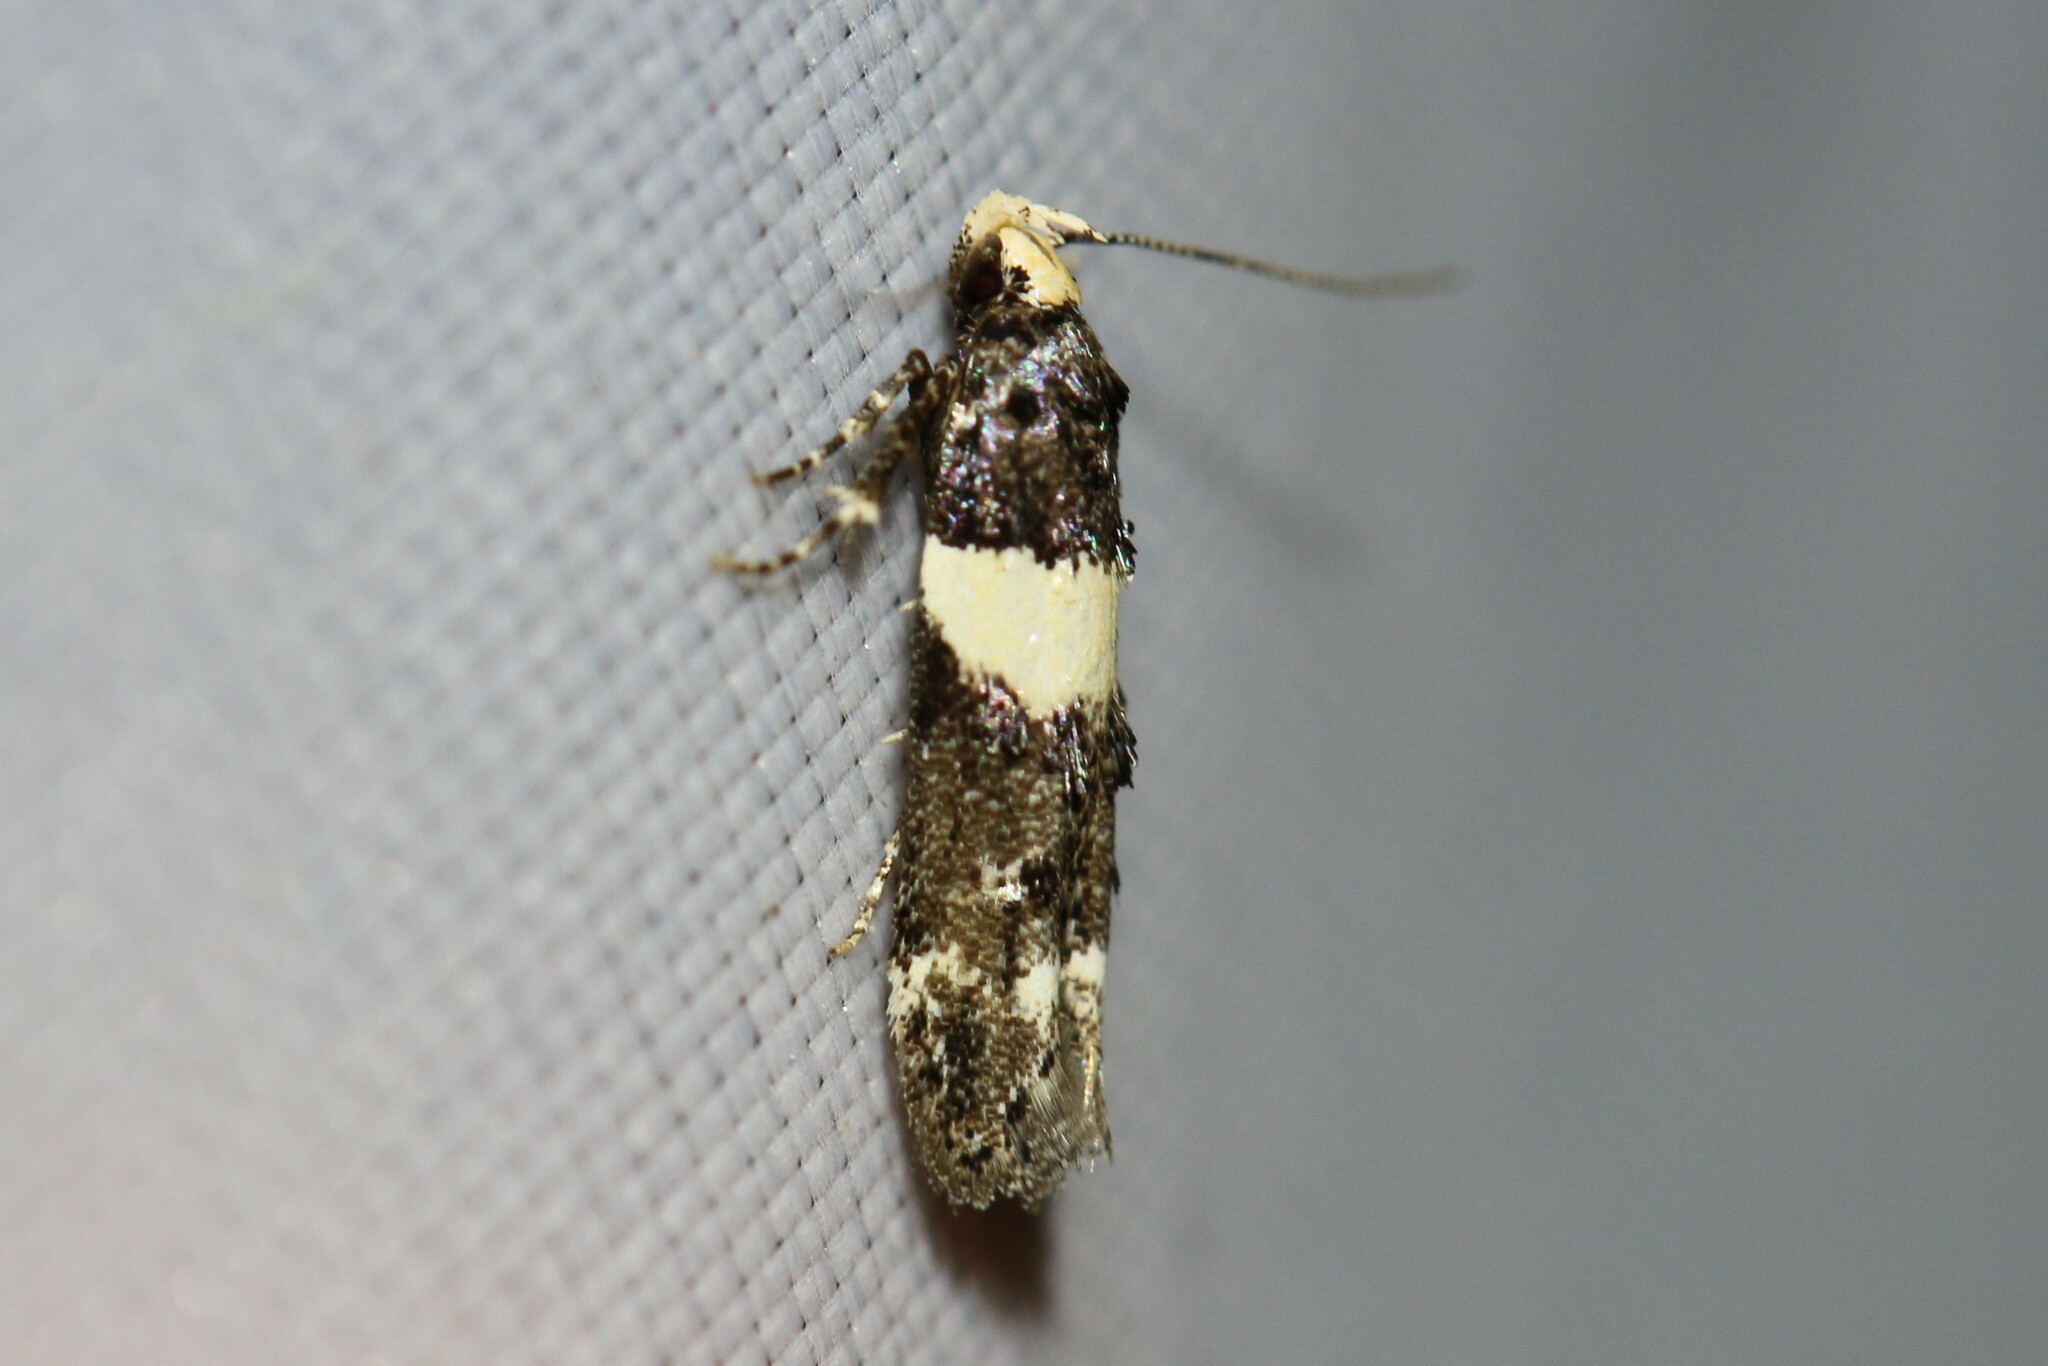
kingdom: Animalia
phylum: Arthropoda
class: Insecta
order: Lepidoptera
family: Gelechiidae
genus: Recurvaria
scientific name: Recurvaria leucatella
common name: White-barred groundling
